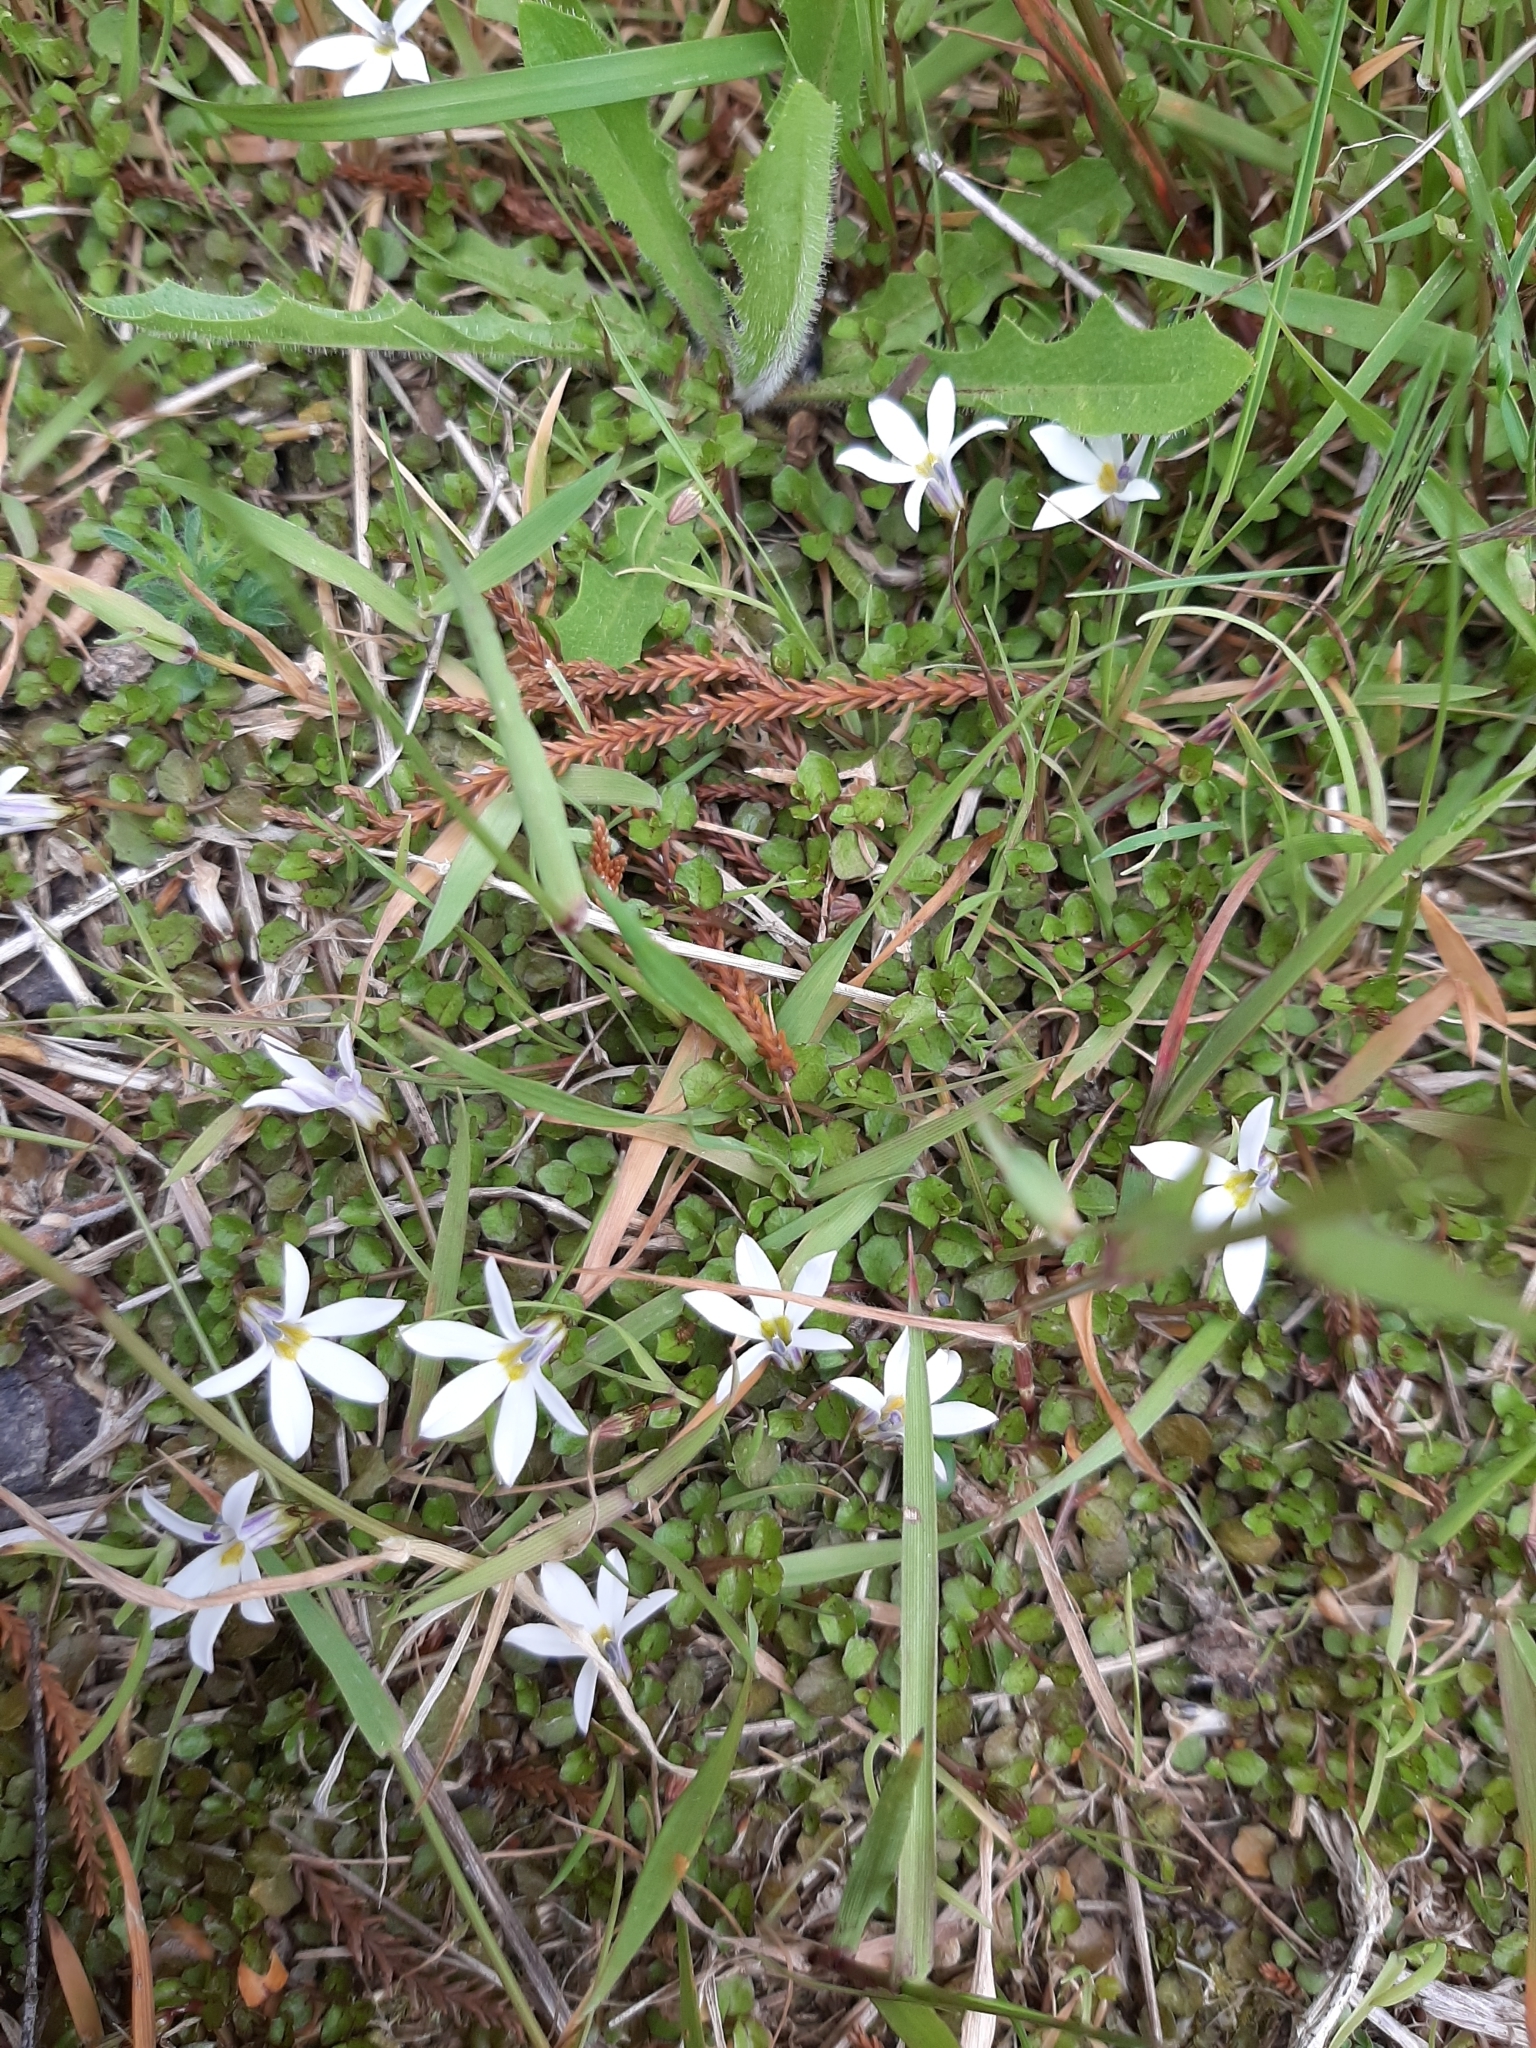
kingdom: Plantae
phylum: Tracheophyta
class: Magnoliopsida
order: Asterales
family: Campanulaceae
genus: Lobelia
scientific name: Lobelia angulata
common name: Lawn lobelia
